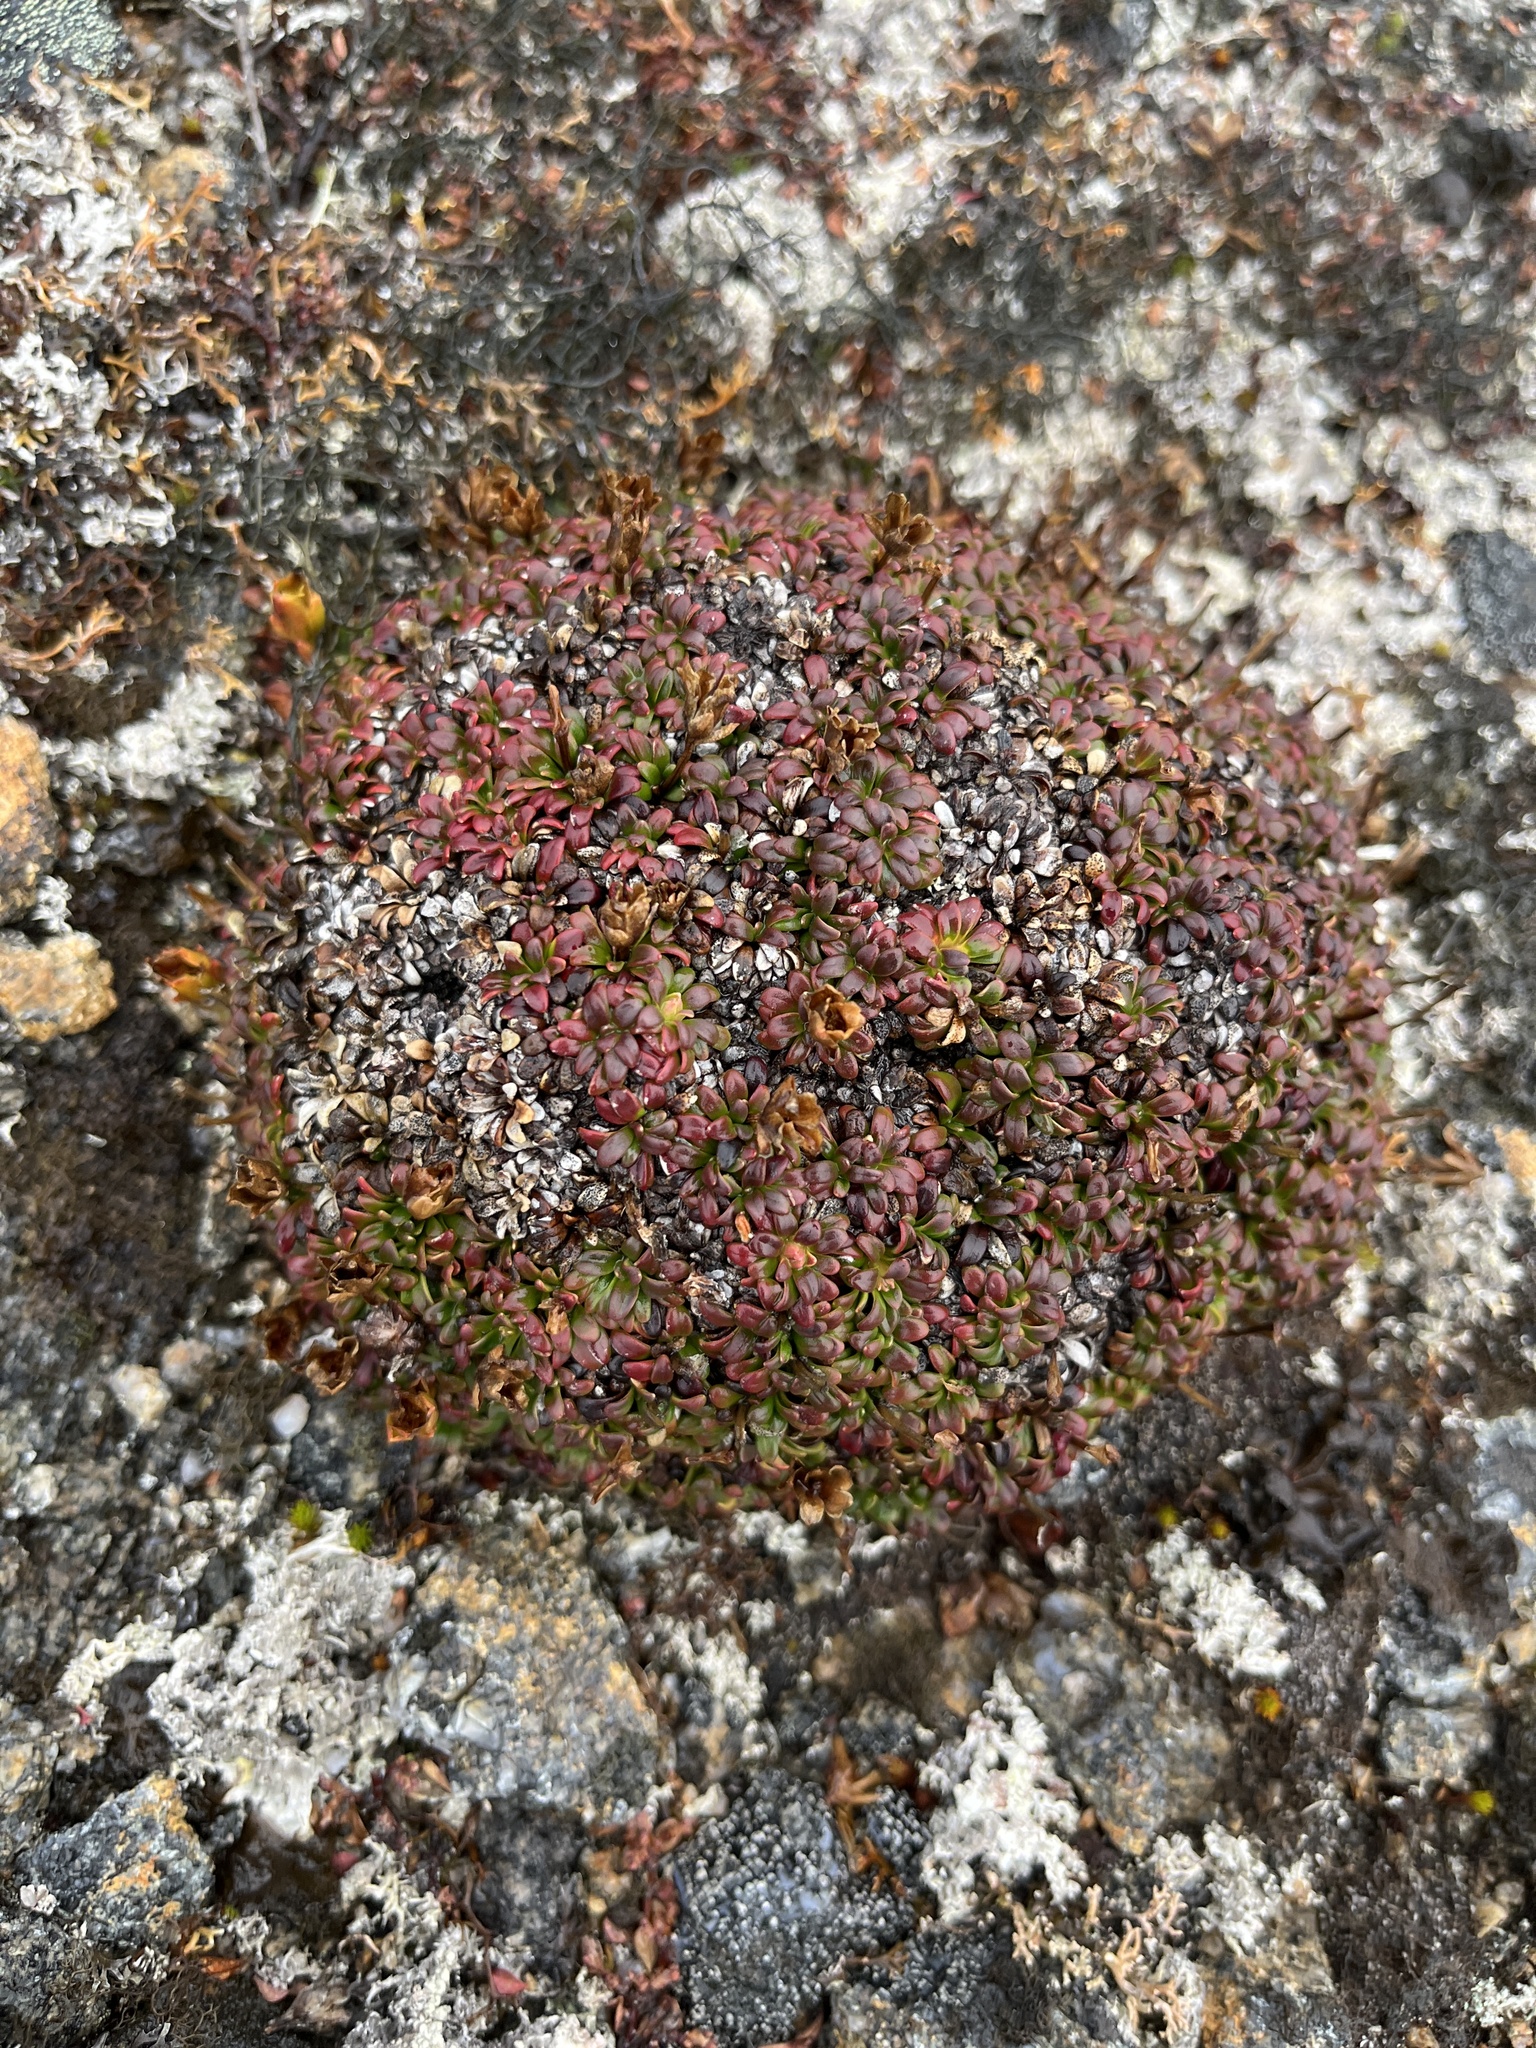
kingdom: Plantae
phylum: Tracheophyta
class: Magnoliopsida
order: Ericales
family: Diapensiaceae
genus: Diapensia
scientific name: Diapensia lapponica
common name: Diapensia
